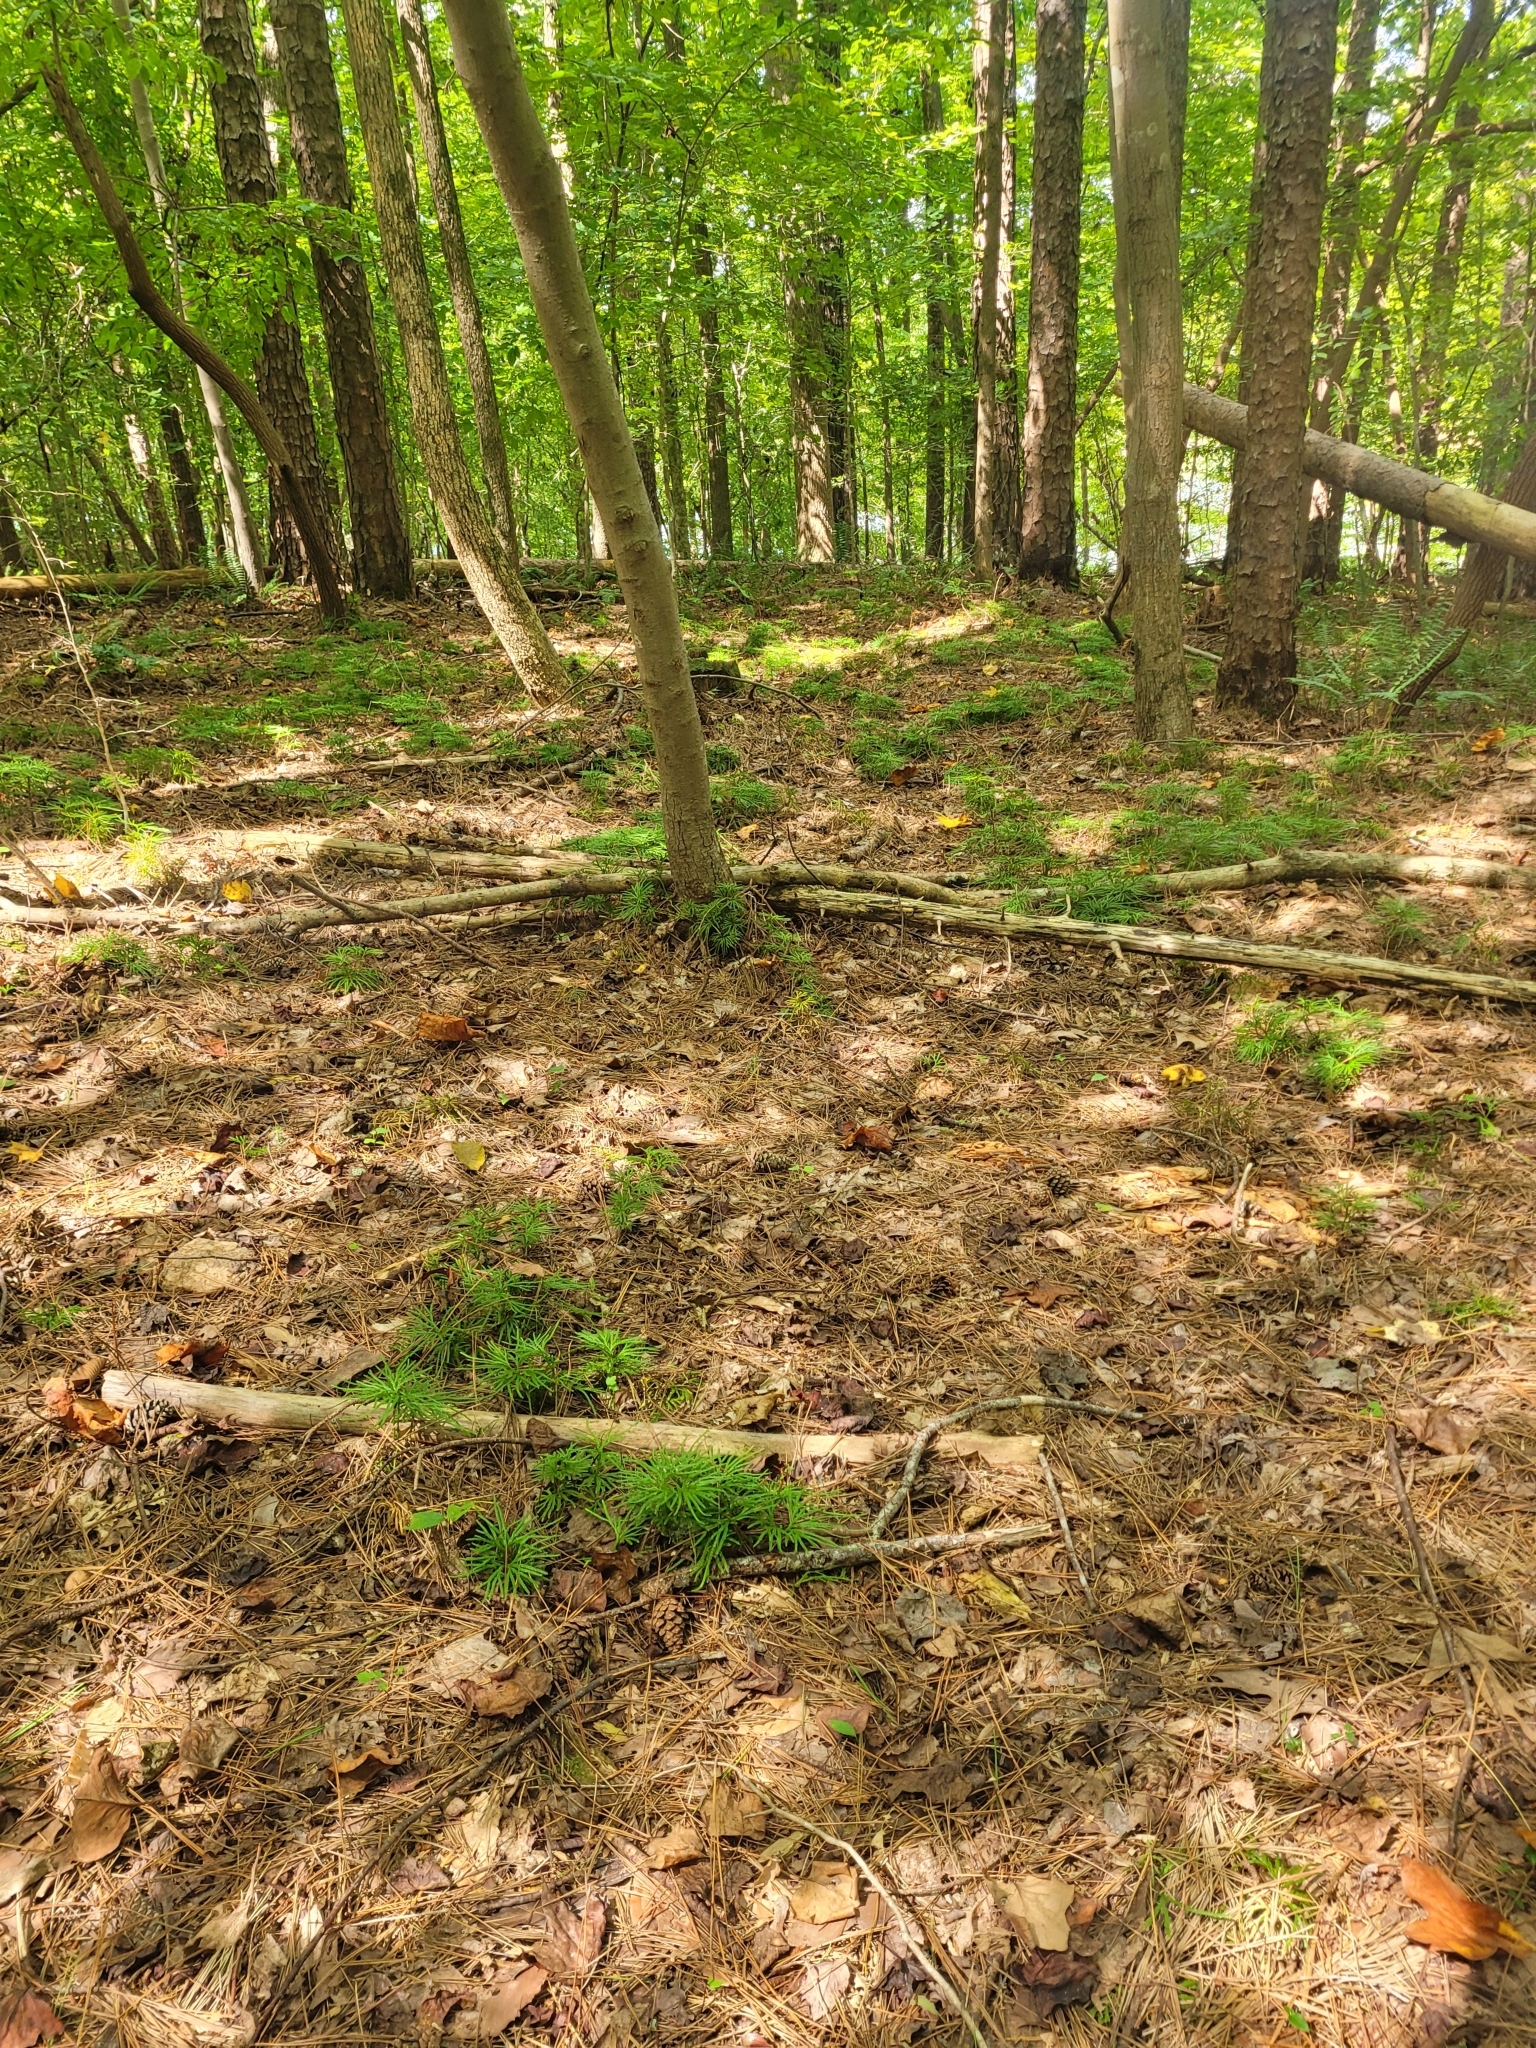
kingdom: Plantae
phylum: Tracheophyta
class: Lycopodiopsida
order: Lycopodiales
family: Lycopodiaceae
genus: Diphasiastrum
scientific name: Diphasiastrum digitatum
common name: Southern running-pine
